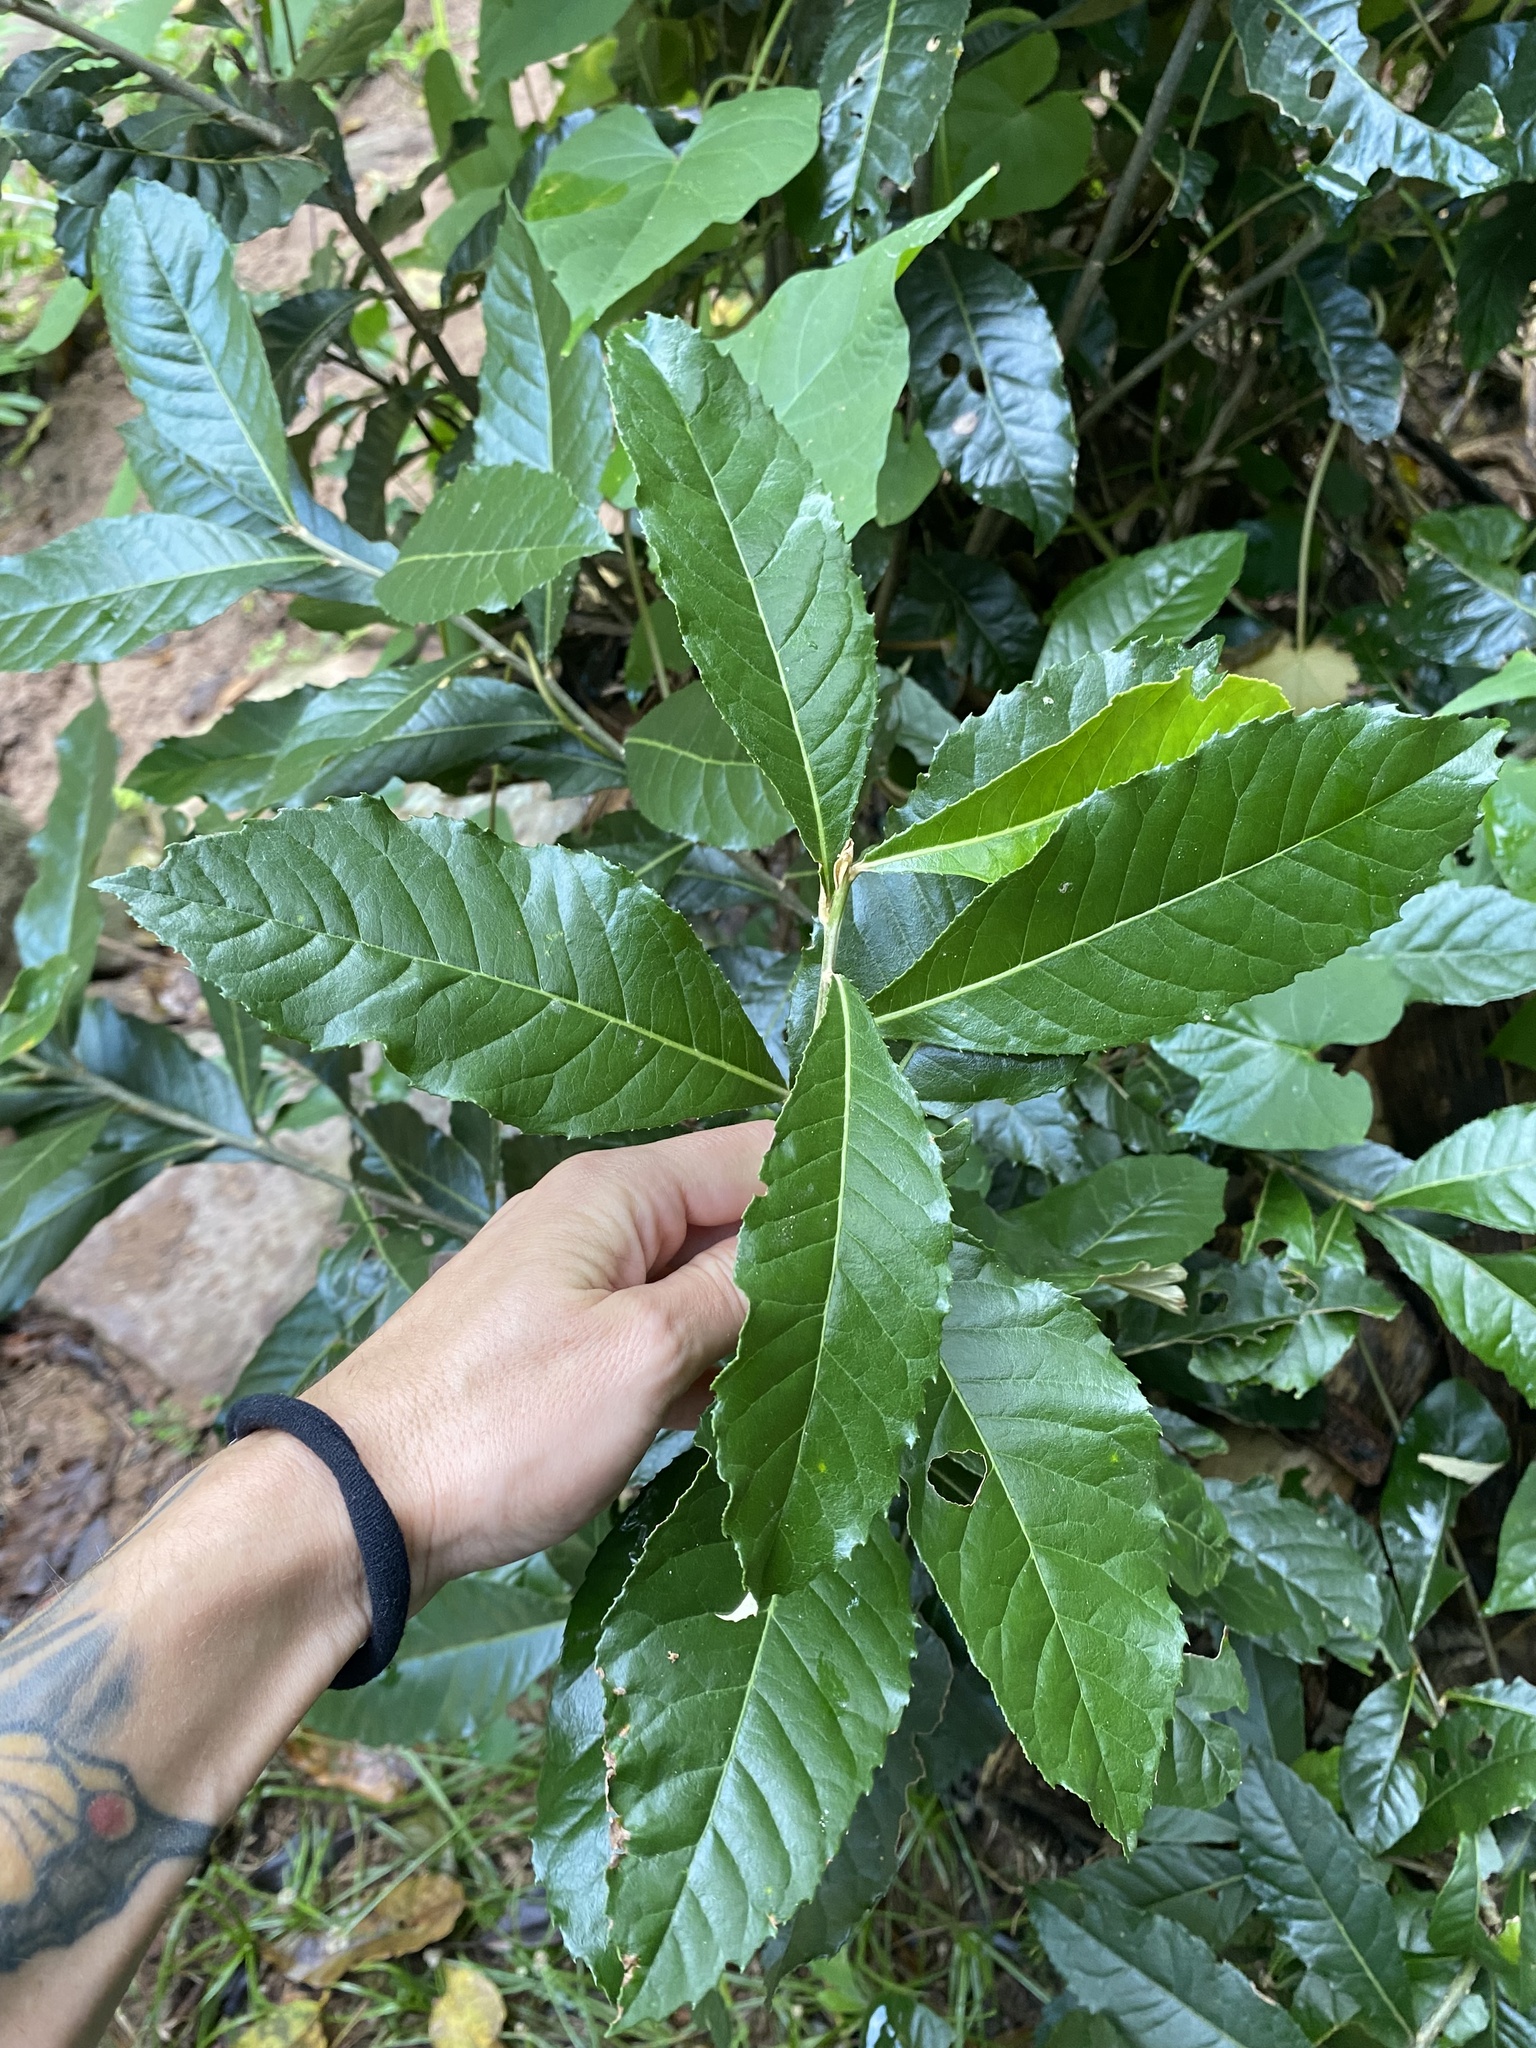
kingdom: Plantae
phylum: Tracheophyta
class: Magnoliopsida
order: Asterales
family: Asteraceae
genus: Brachylaena
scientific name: Brachylaena discolor
